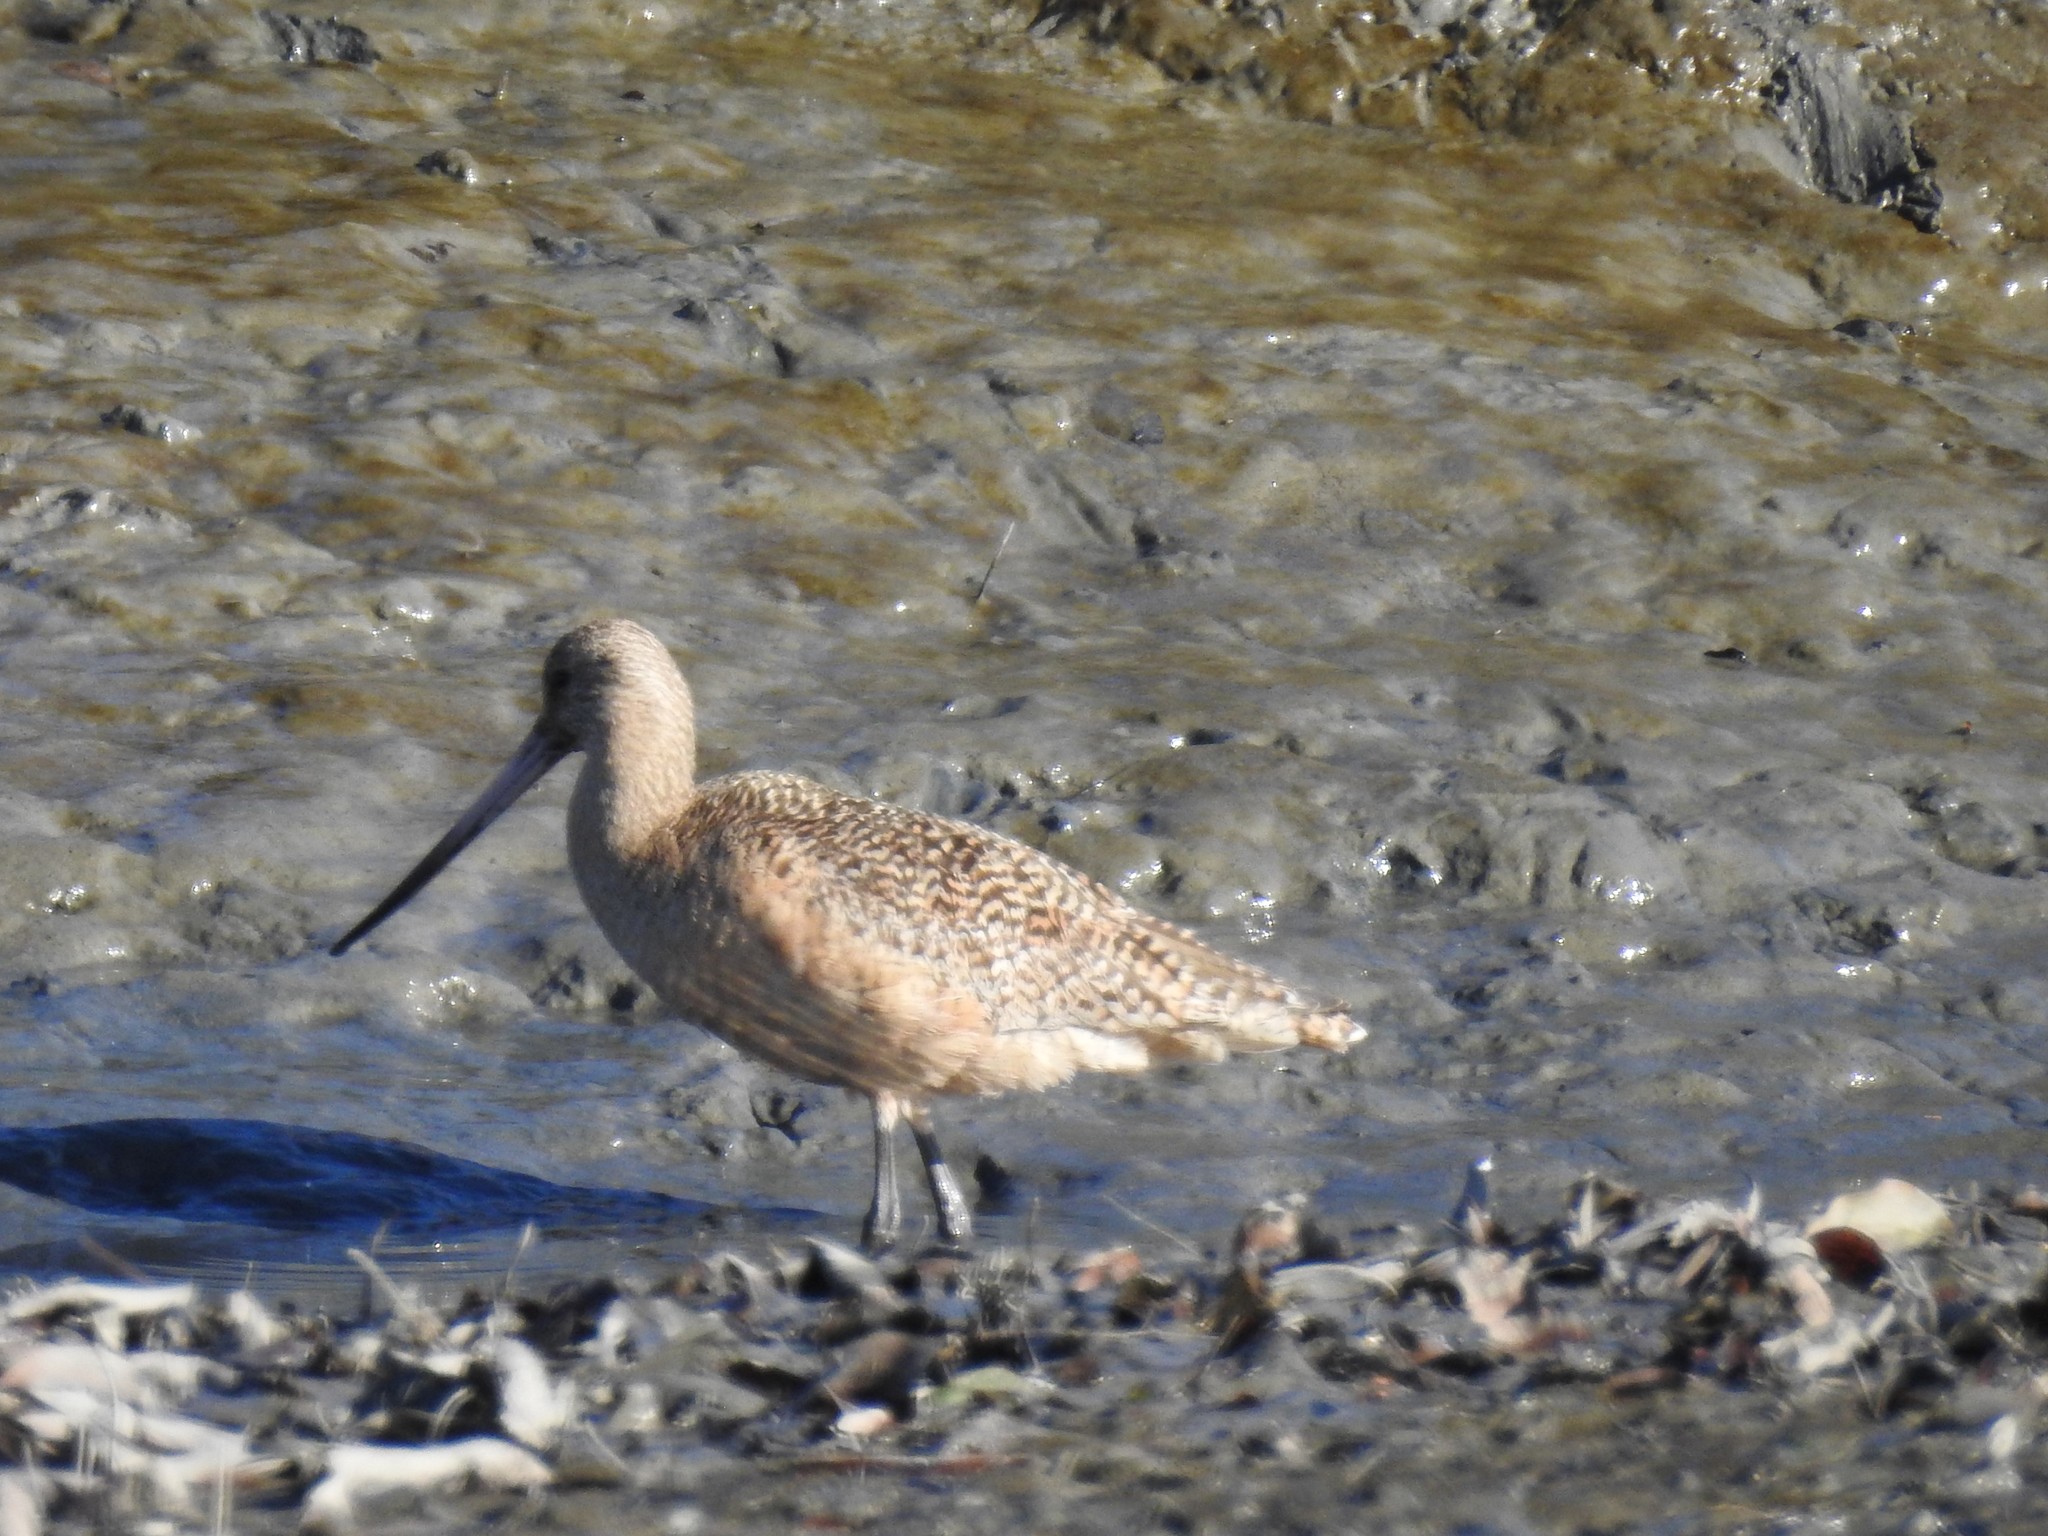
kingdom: Animalia
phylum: Chordata
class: Aves
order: Charadriiformes
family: Scolopacidae
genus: Limosa
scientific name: Limosa fedoa
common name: Marbled godwit
